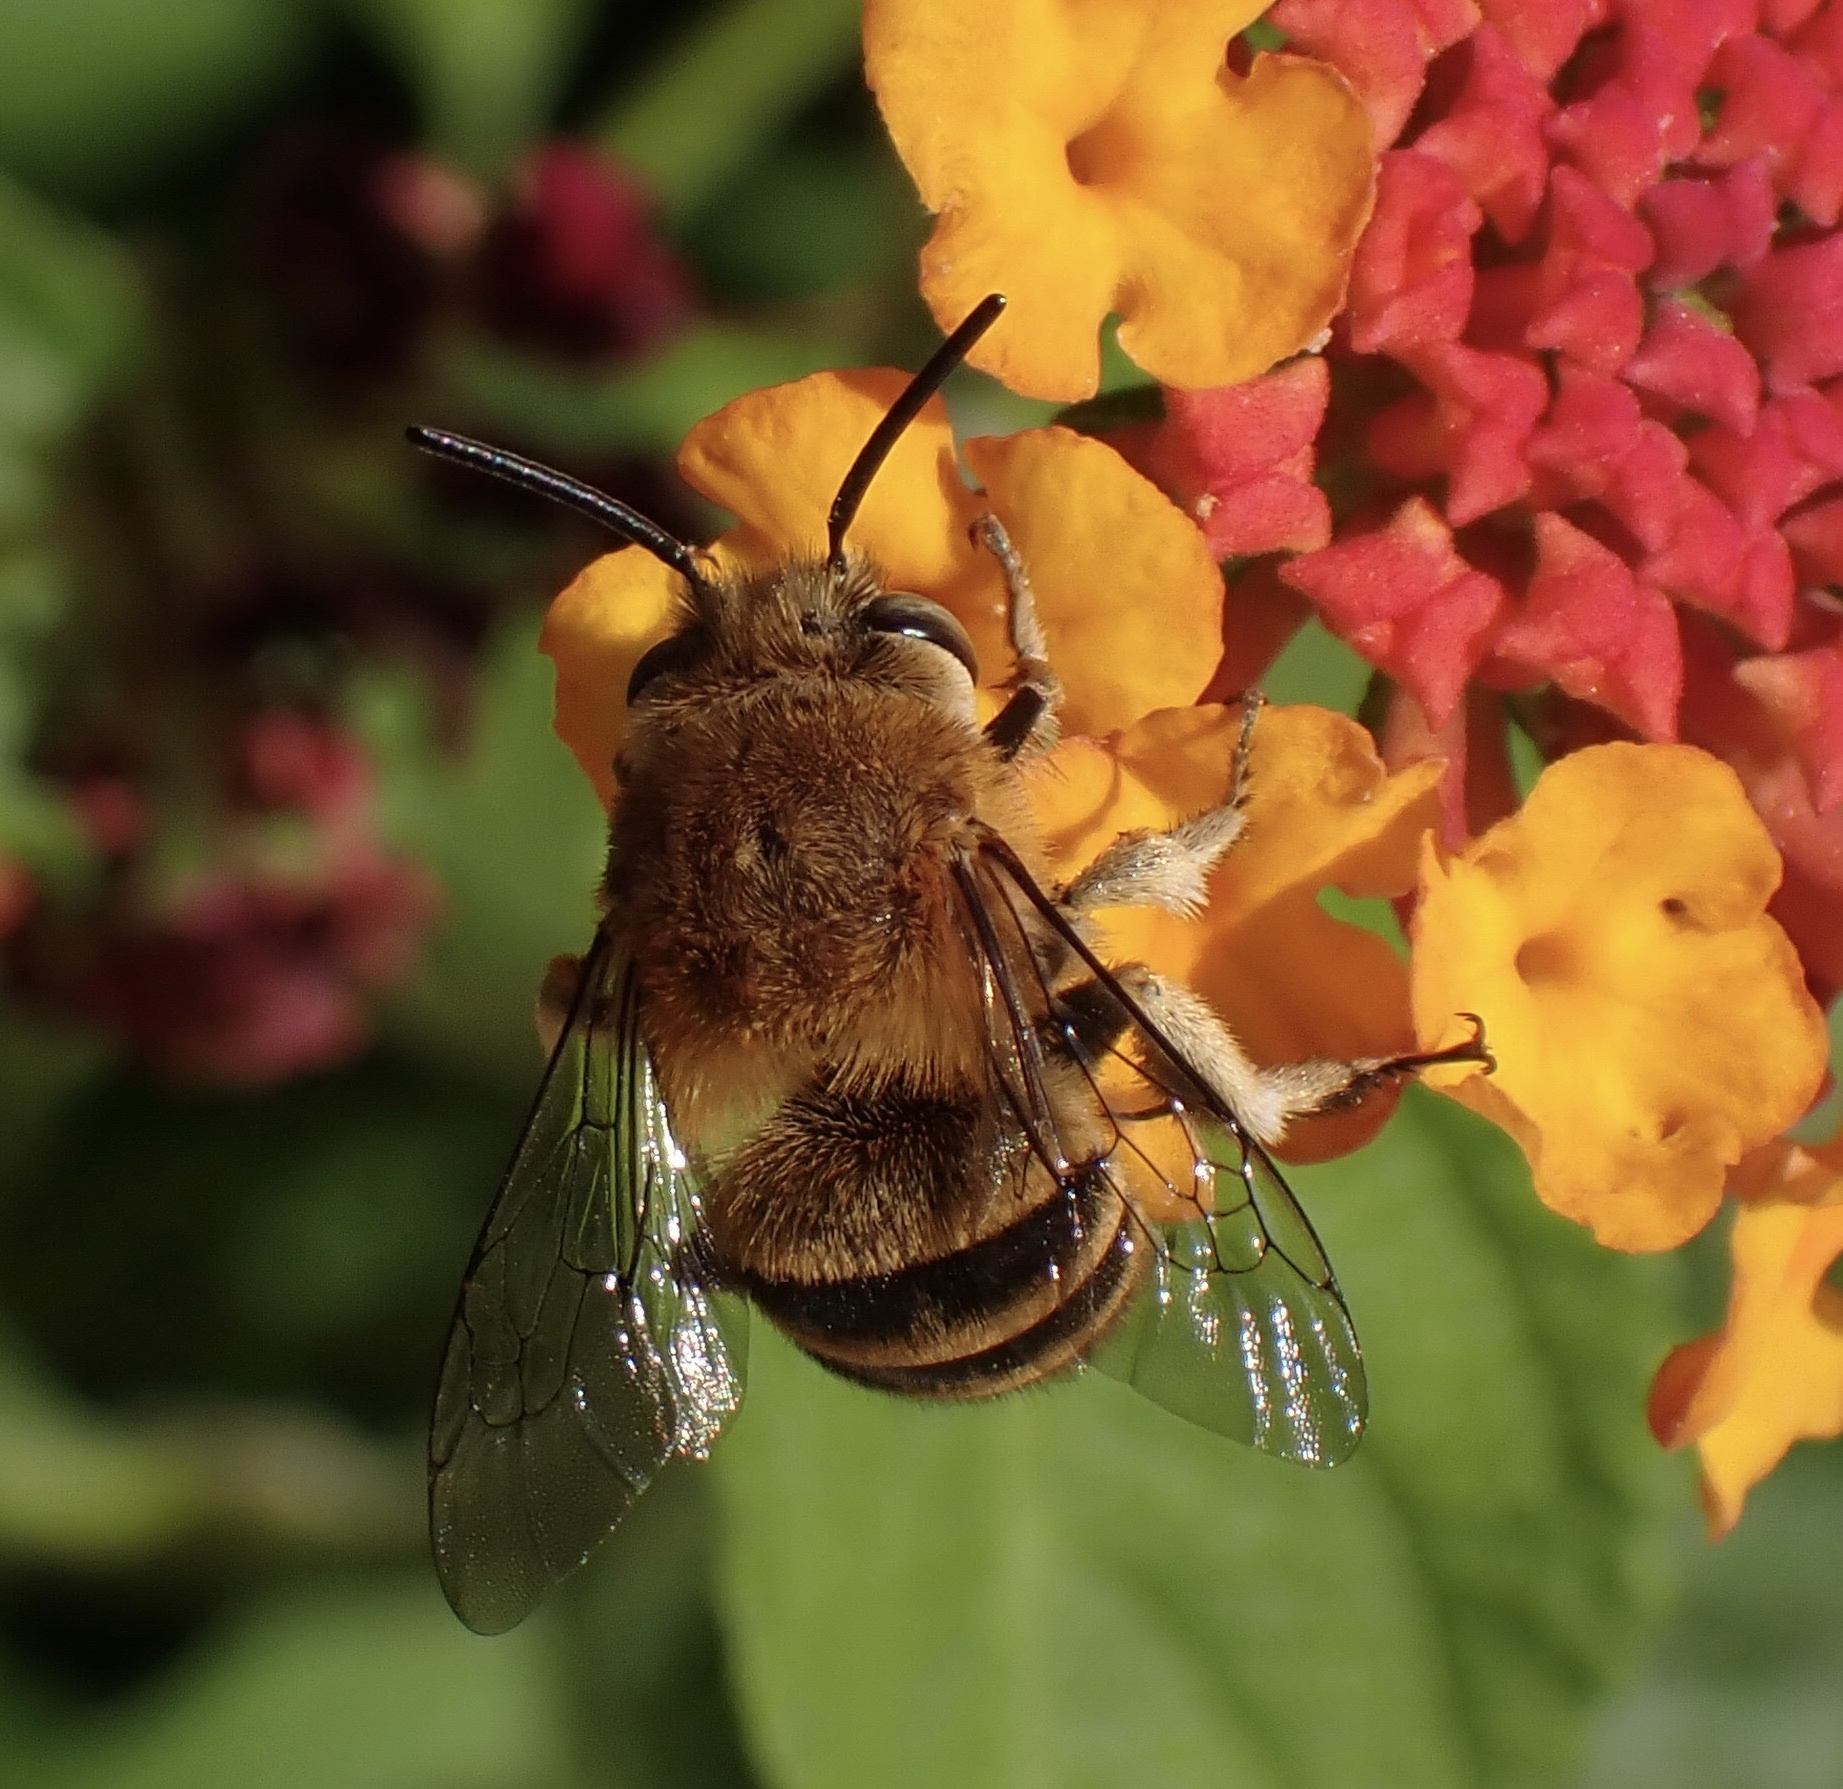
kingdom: Animalia
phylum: Arthropoda
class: Insecta
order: Hymenoptera
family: Apidae
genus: Amegilla
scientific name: Amegilla garrula
